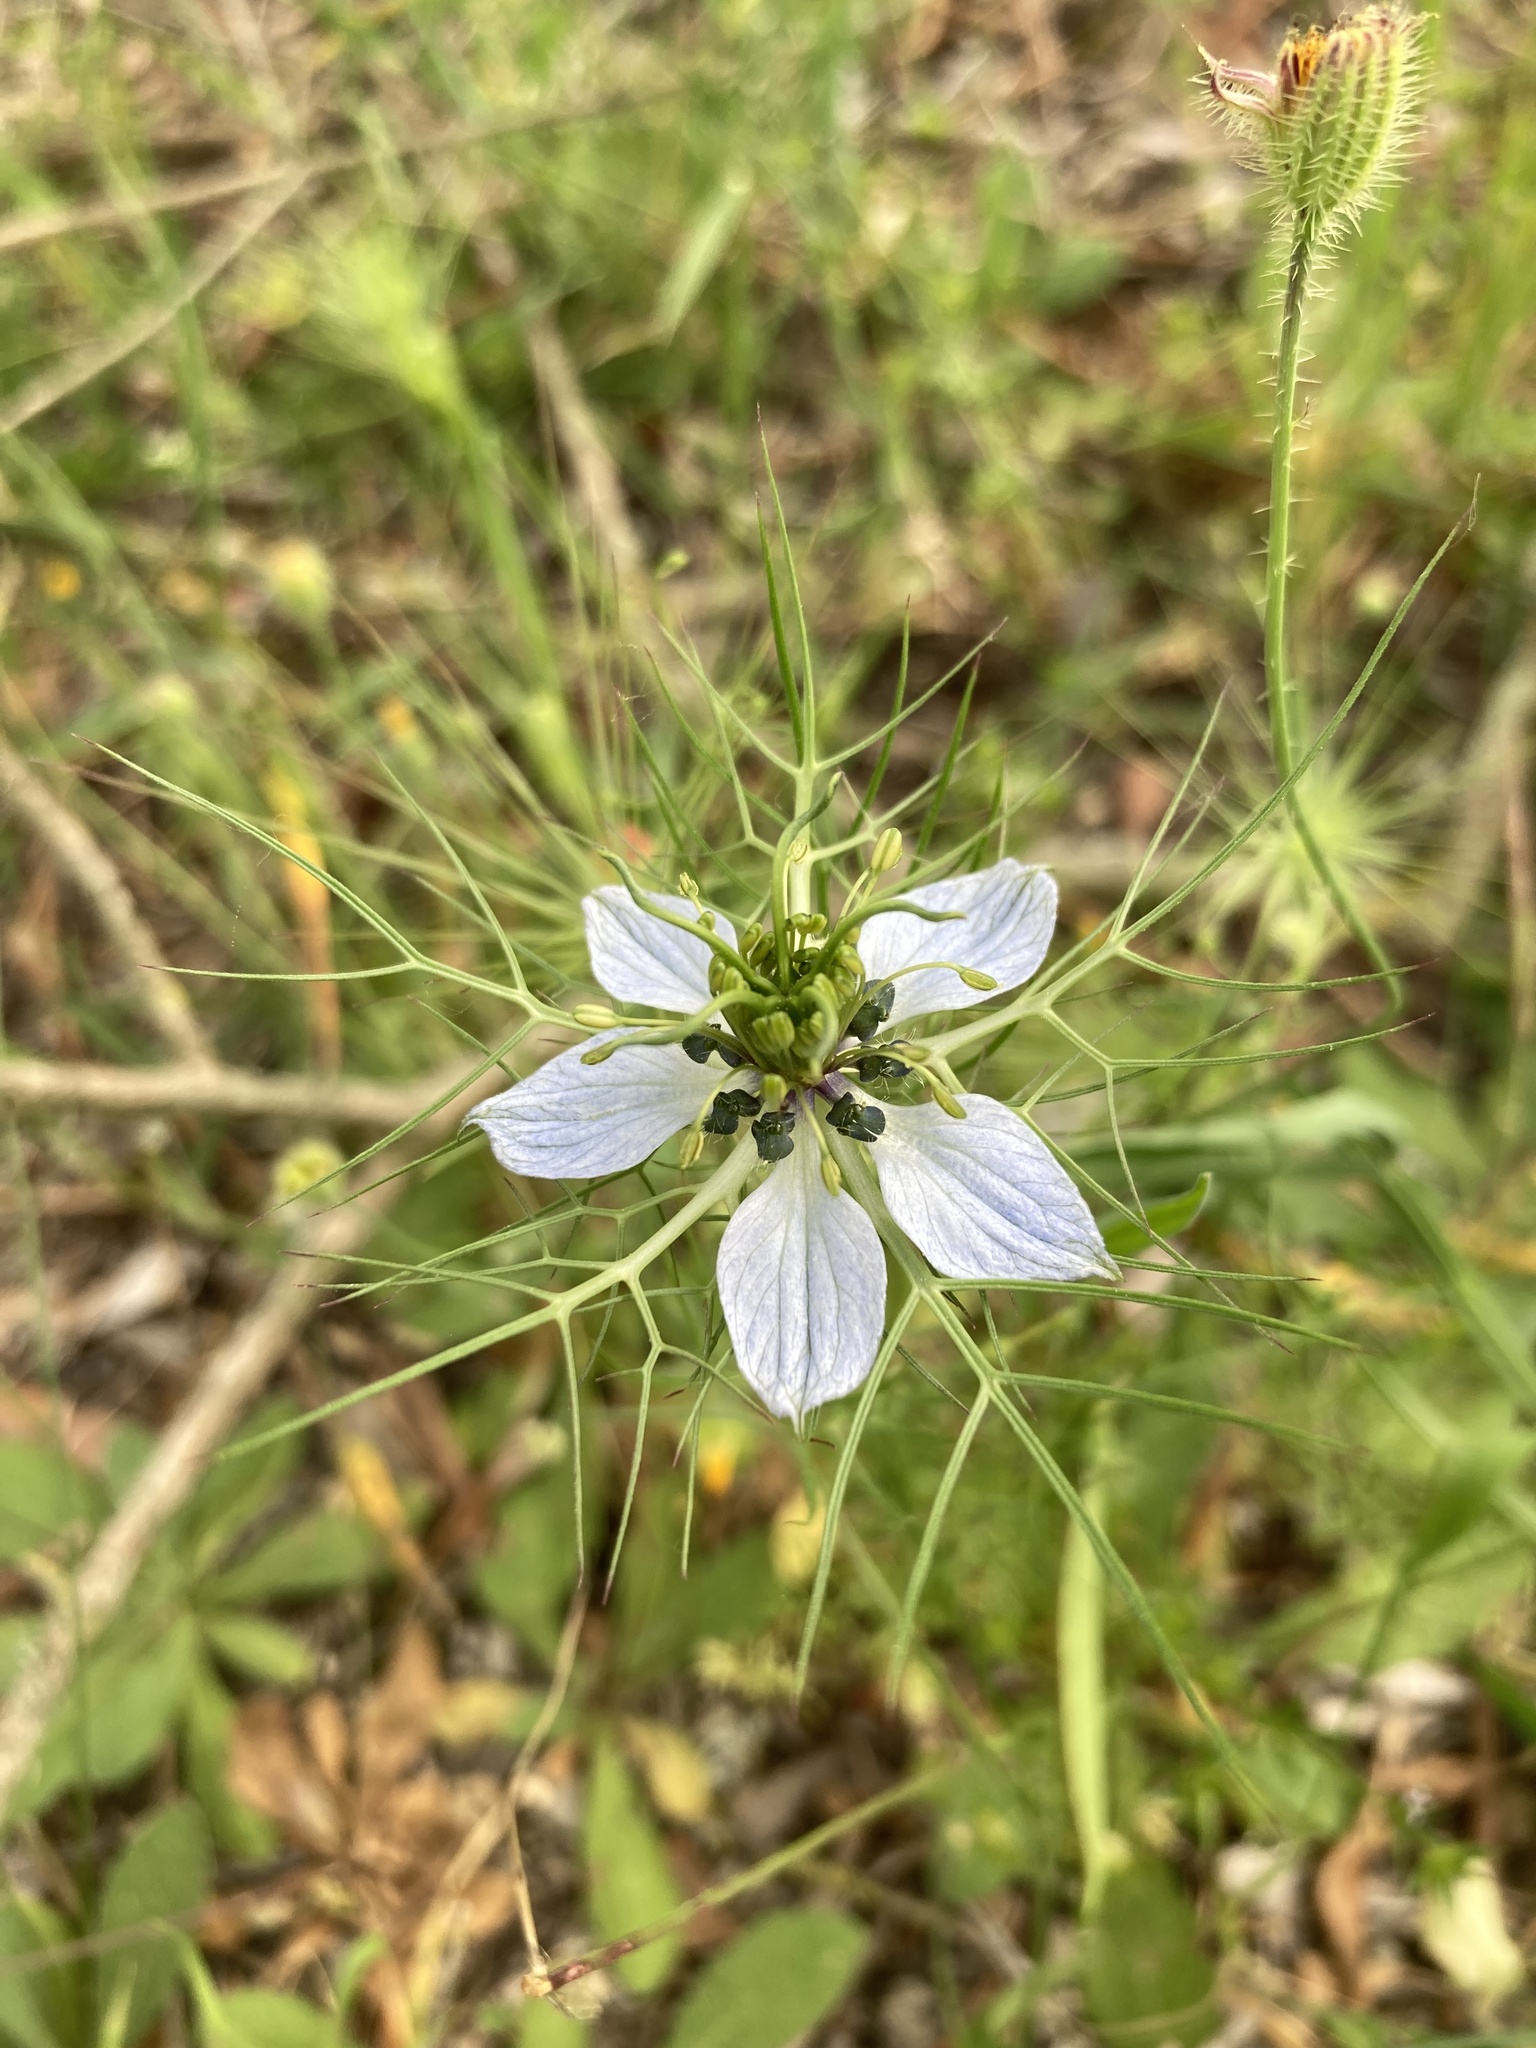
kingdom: Plantae
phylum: Tracheophyta
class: Magnoliopsida
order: Ranunculales
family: Ranunculaceae
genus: Nigella
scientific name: Nigella damascena
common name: Love-in-a-mist
